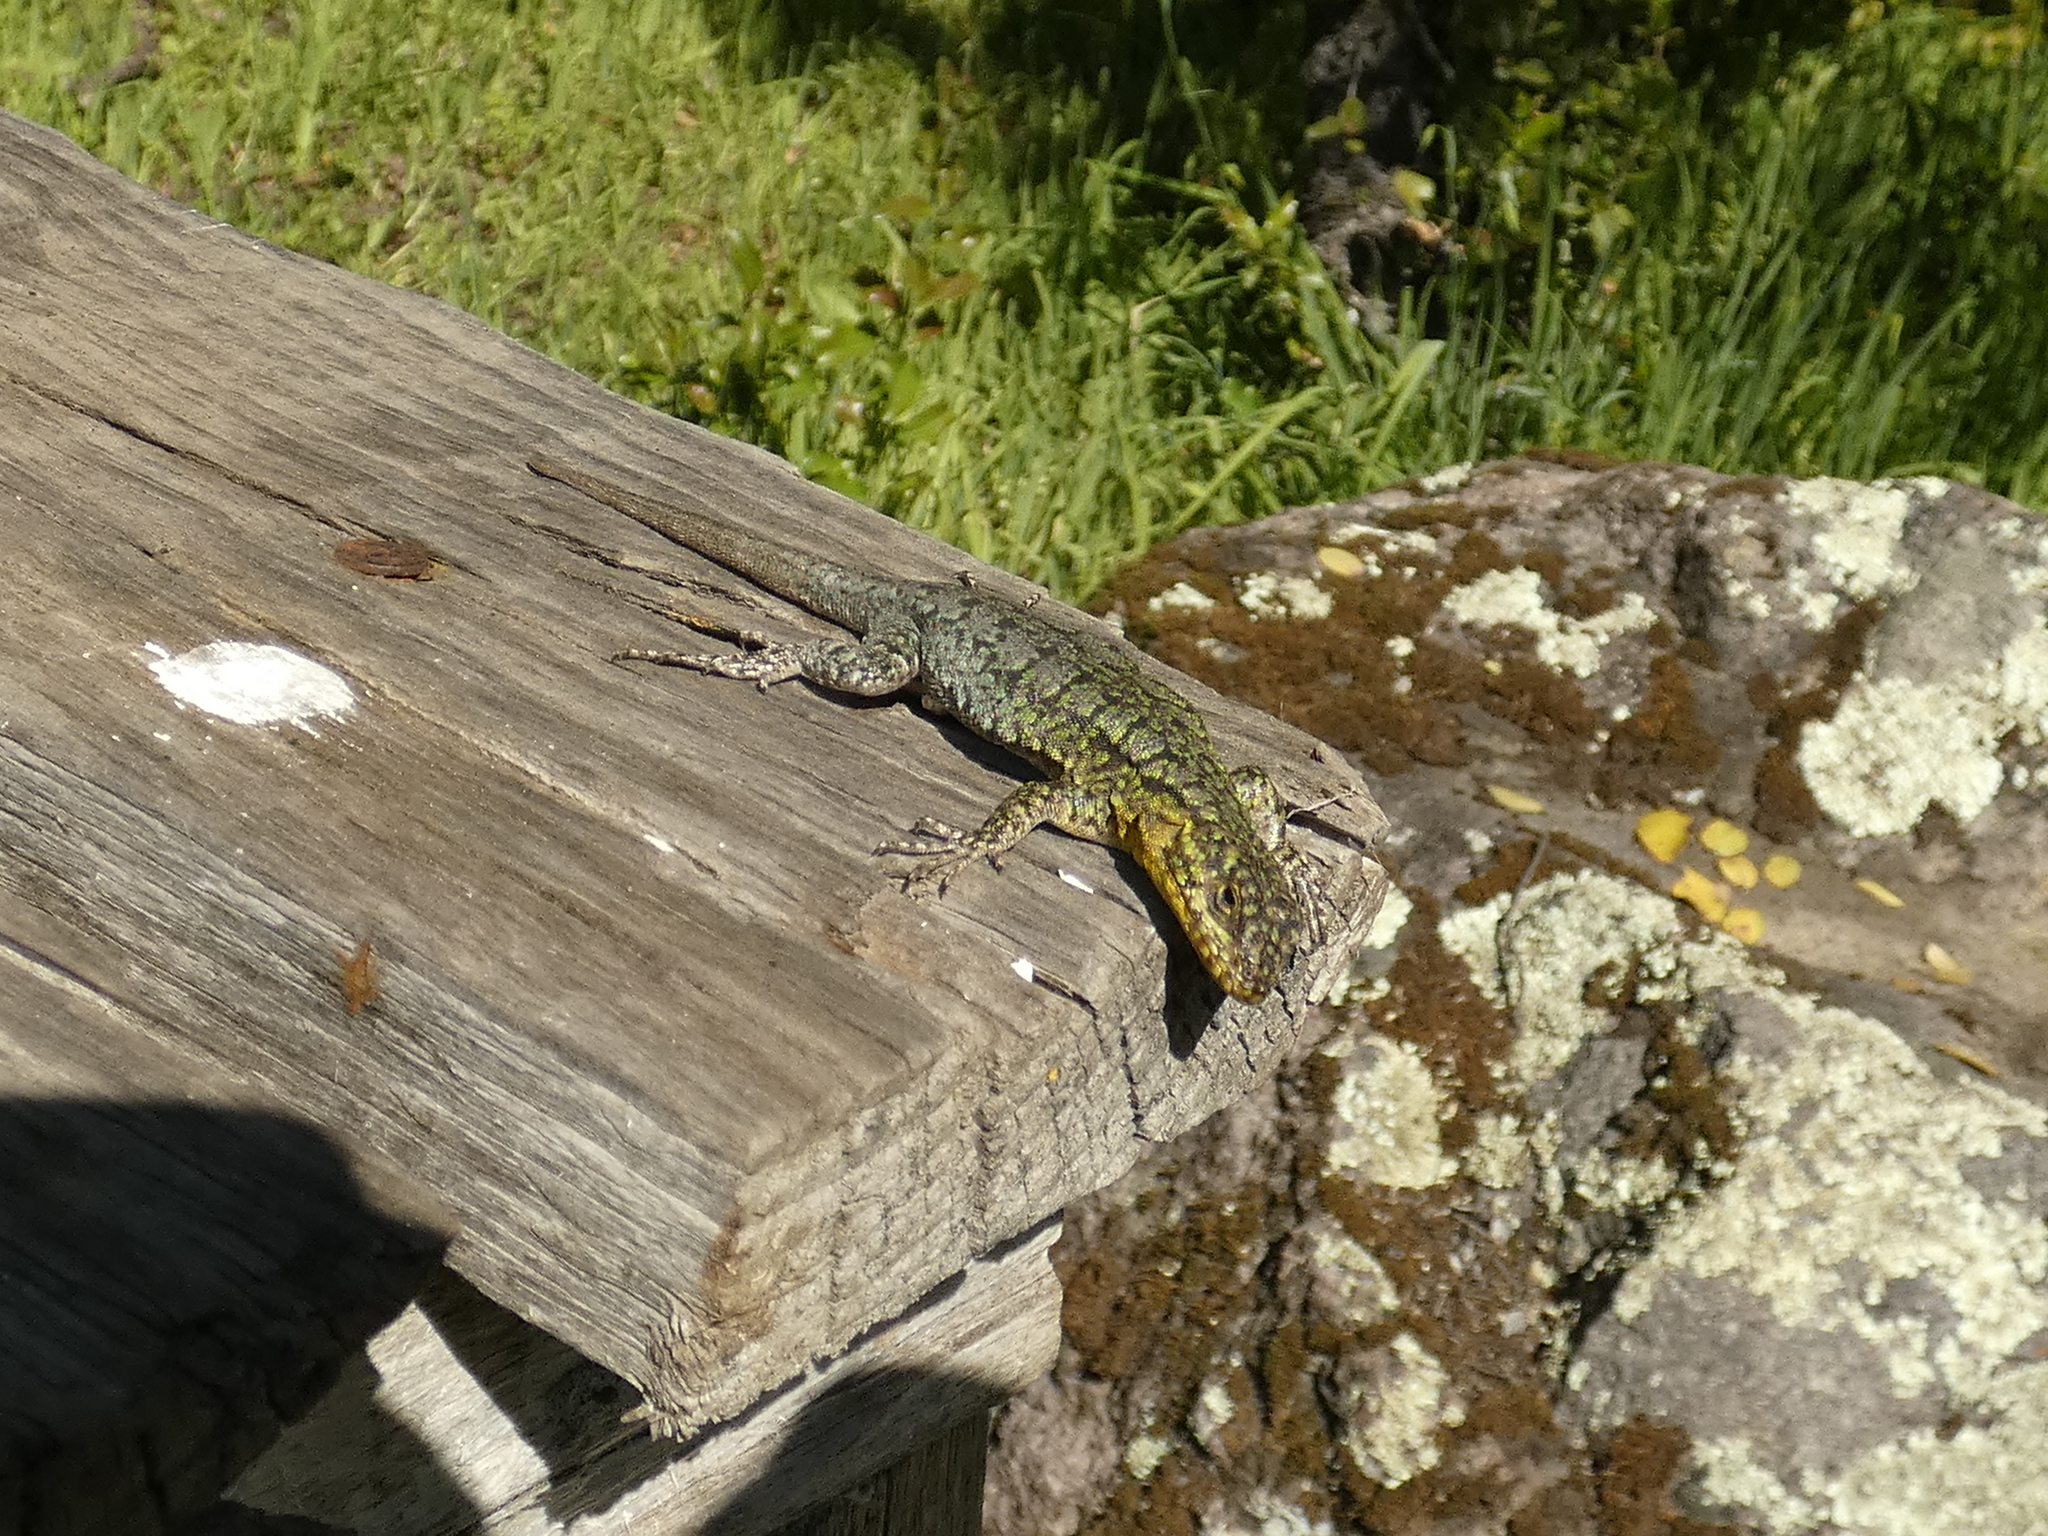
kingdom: Animalia
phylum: Chordata
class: Squamata
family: Liolaemidae
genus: Liolaemus
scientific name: Liolaemus tenuis
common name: Thin tree iguana
